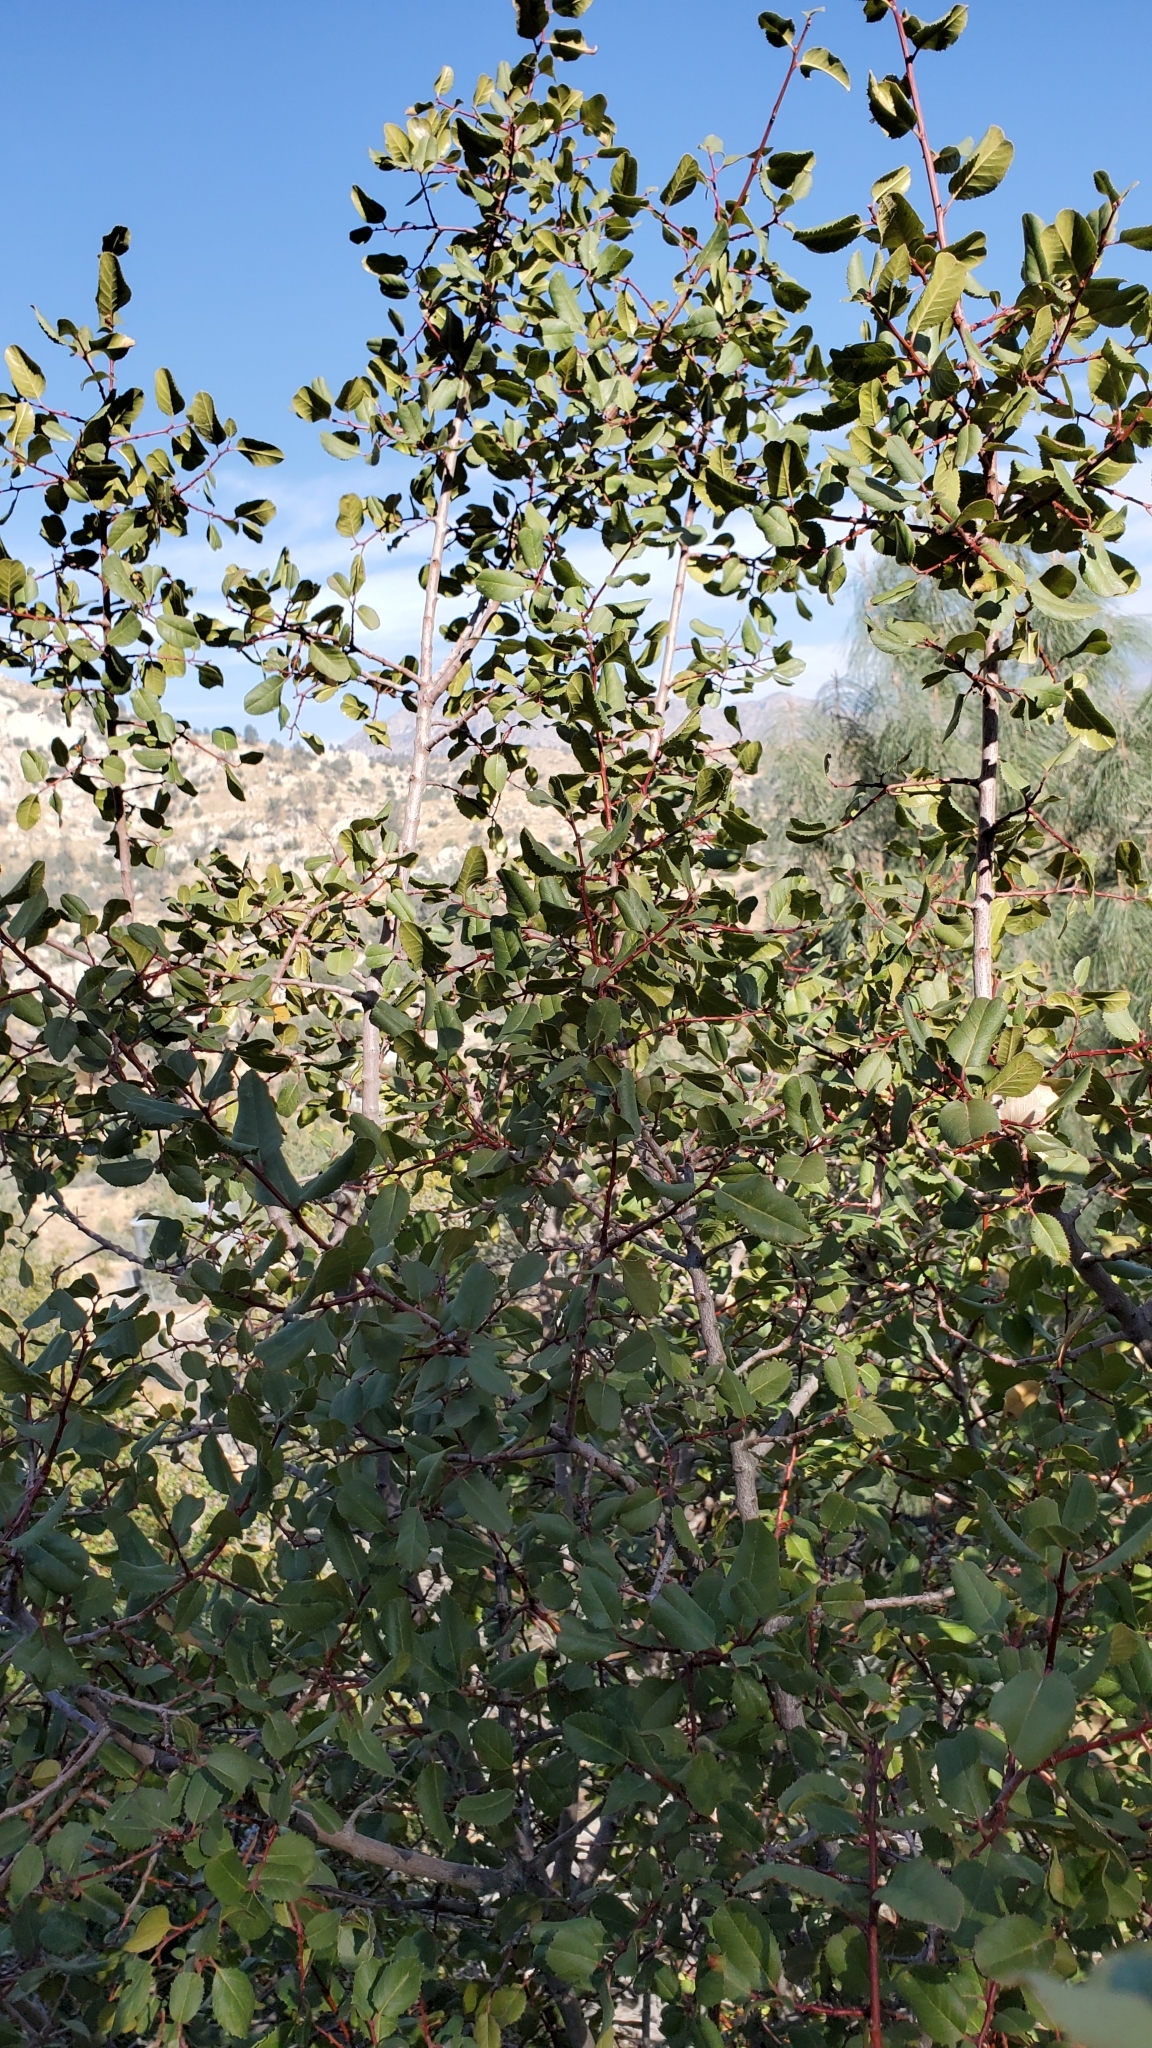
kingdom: Plantae
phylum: Tracheophyta
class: Magnoliopsida
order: Rosales
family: Rhamnaceae
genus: Endotropis
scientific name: Endotropis crocea
